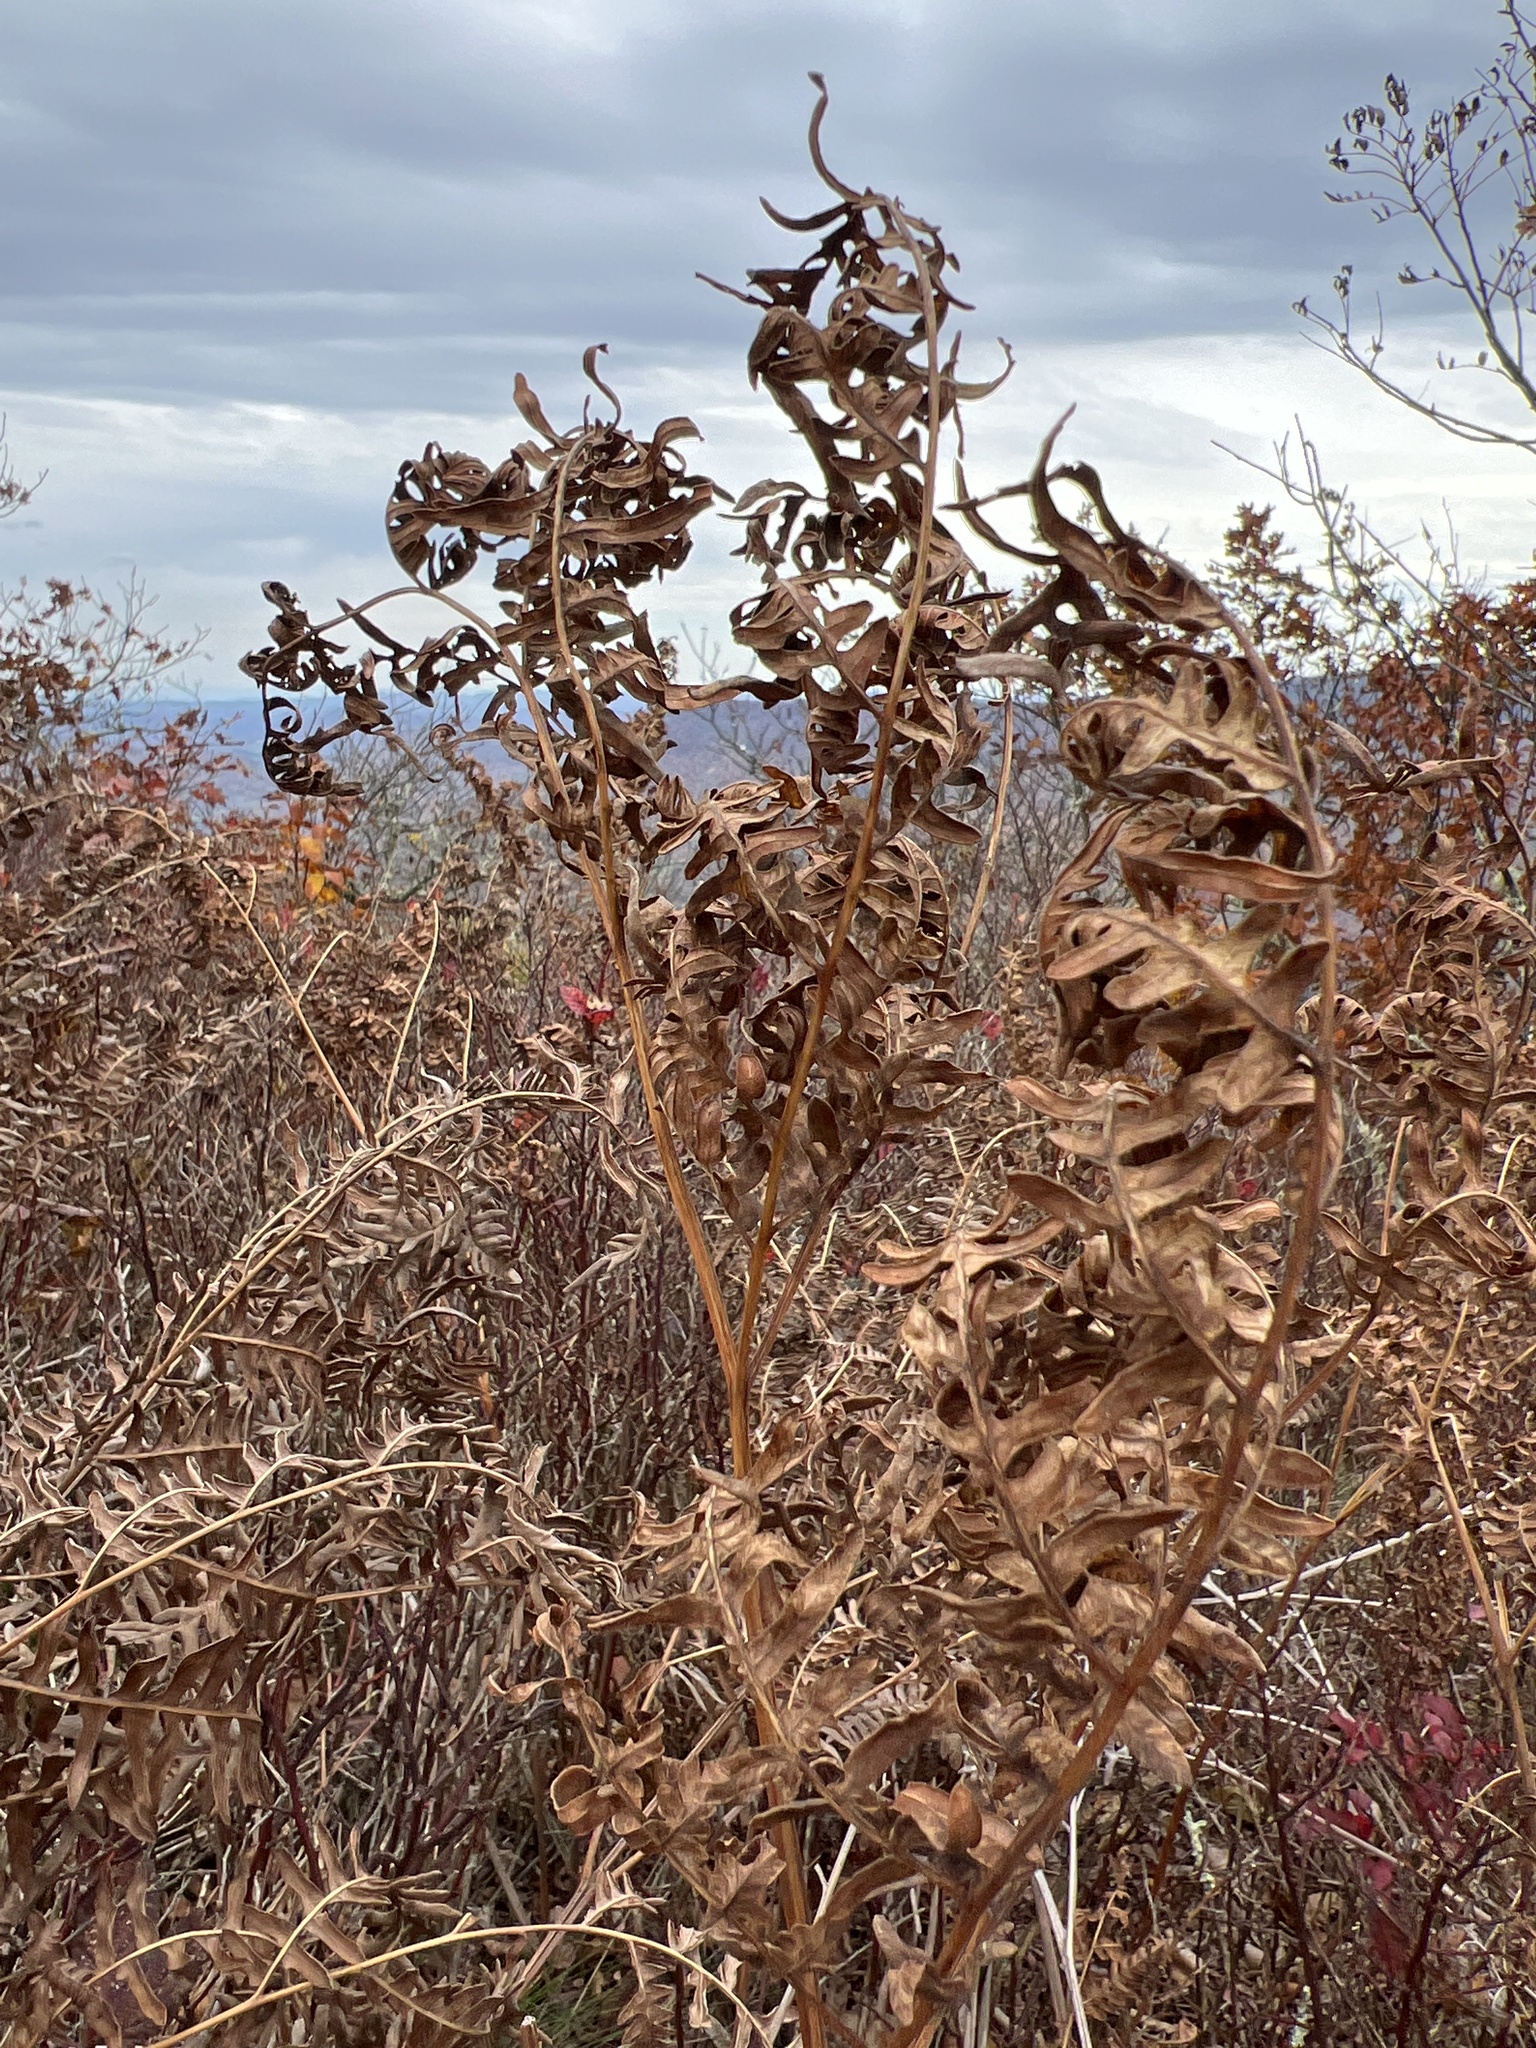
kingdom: Plantae
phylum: Tracheophyta
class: Polypodiopsida
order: Polypodiales
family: Dennstaedtiaceae
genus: Pteridium
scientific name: Pteridium aquilinum
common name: Bracken
